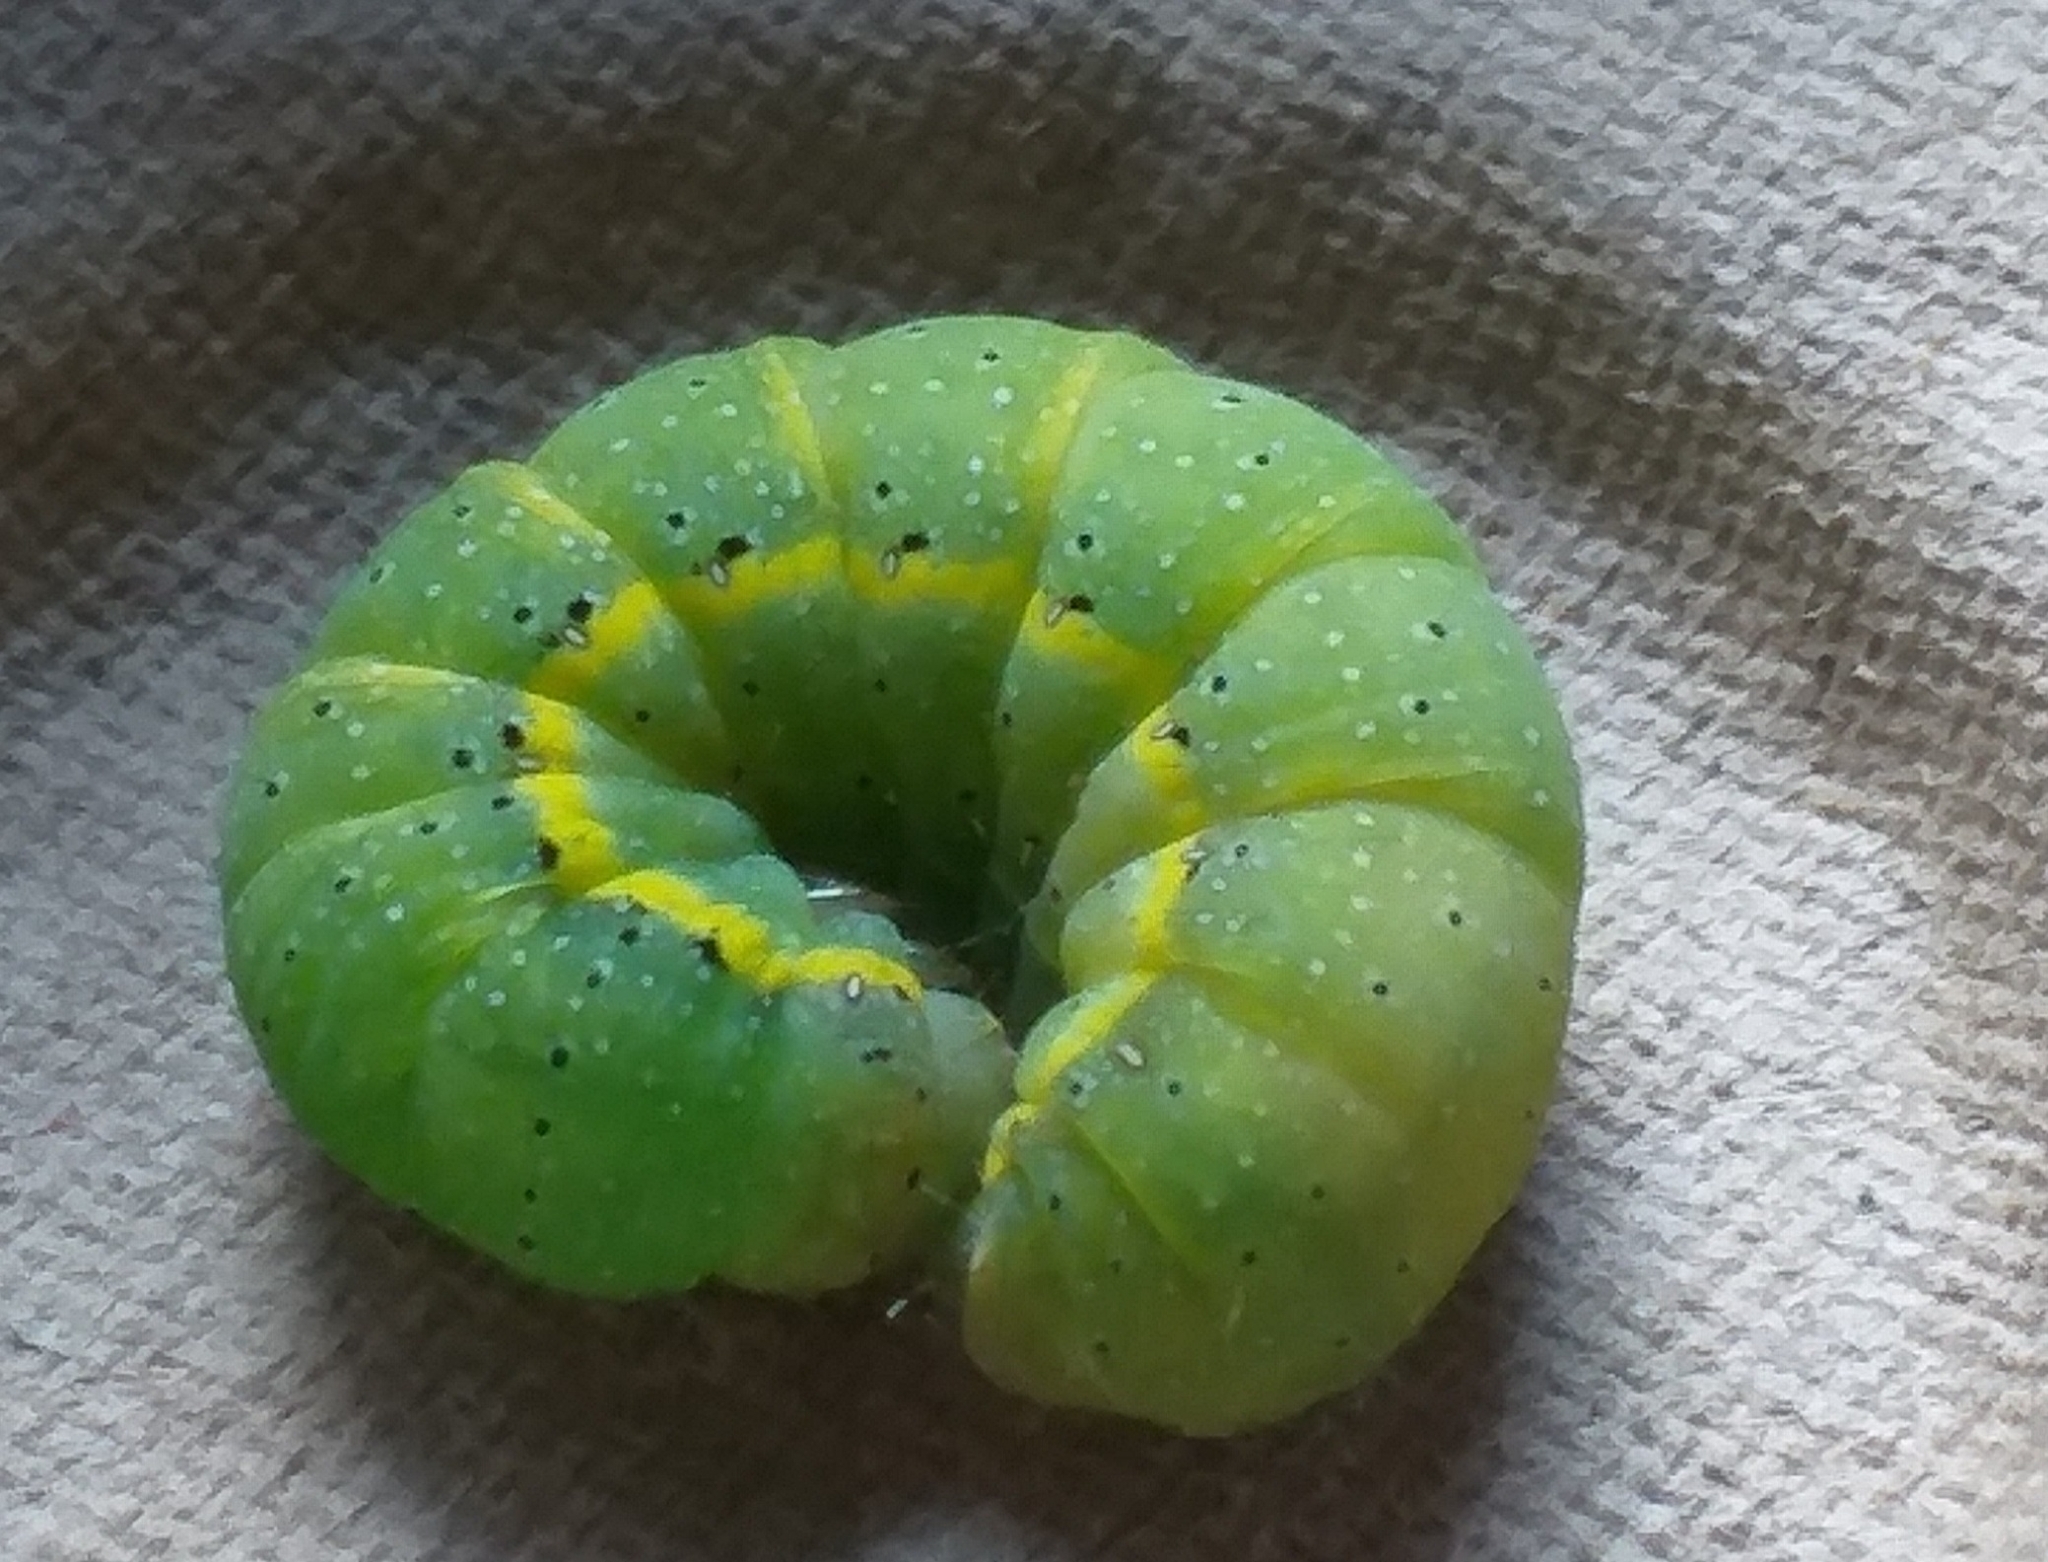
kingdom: Animalia
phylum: Arthropoda
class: Insecta
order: Lepidoptera
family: Noctuidae
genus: Lacanobia
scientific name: Lacanobia oleracea
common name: Bright-line brown-eye
